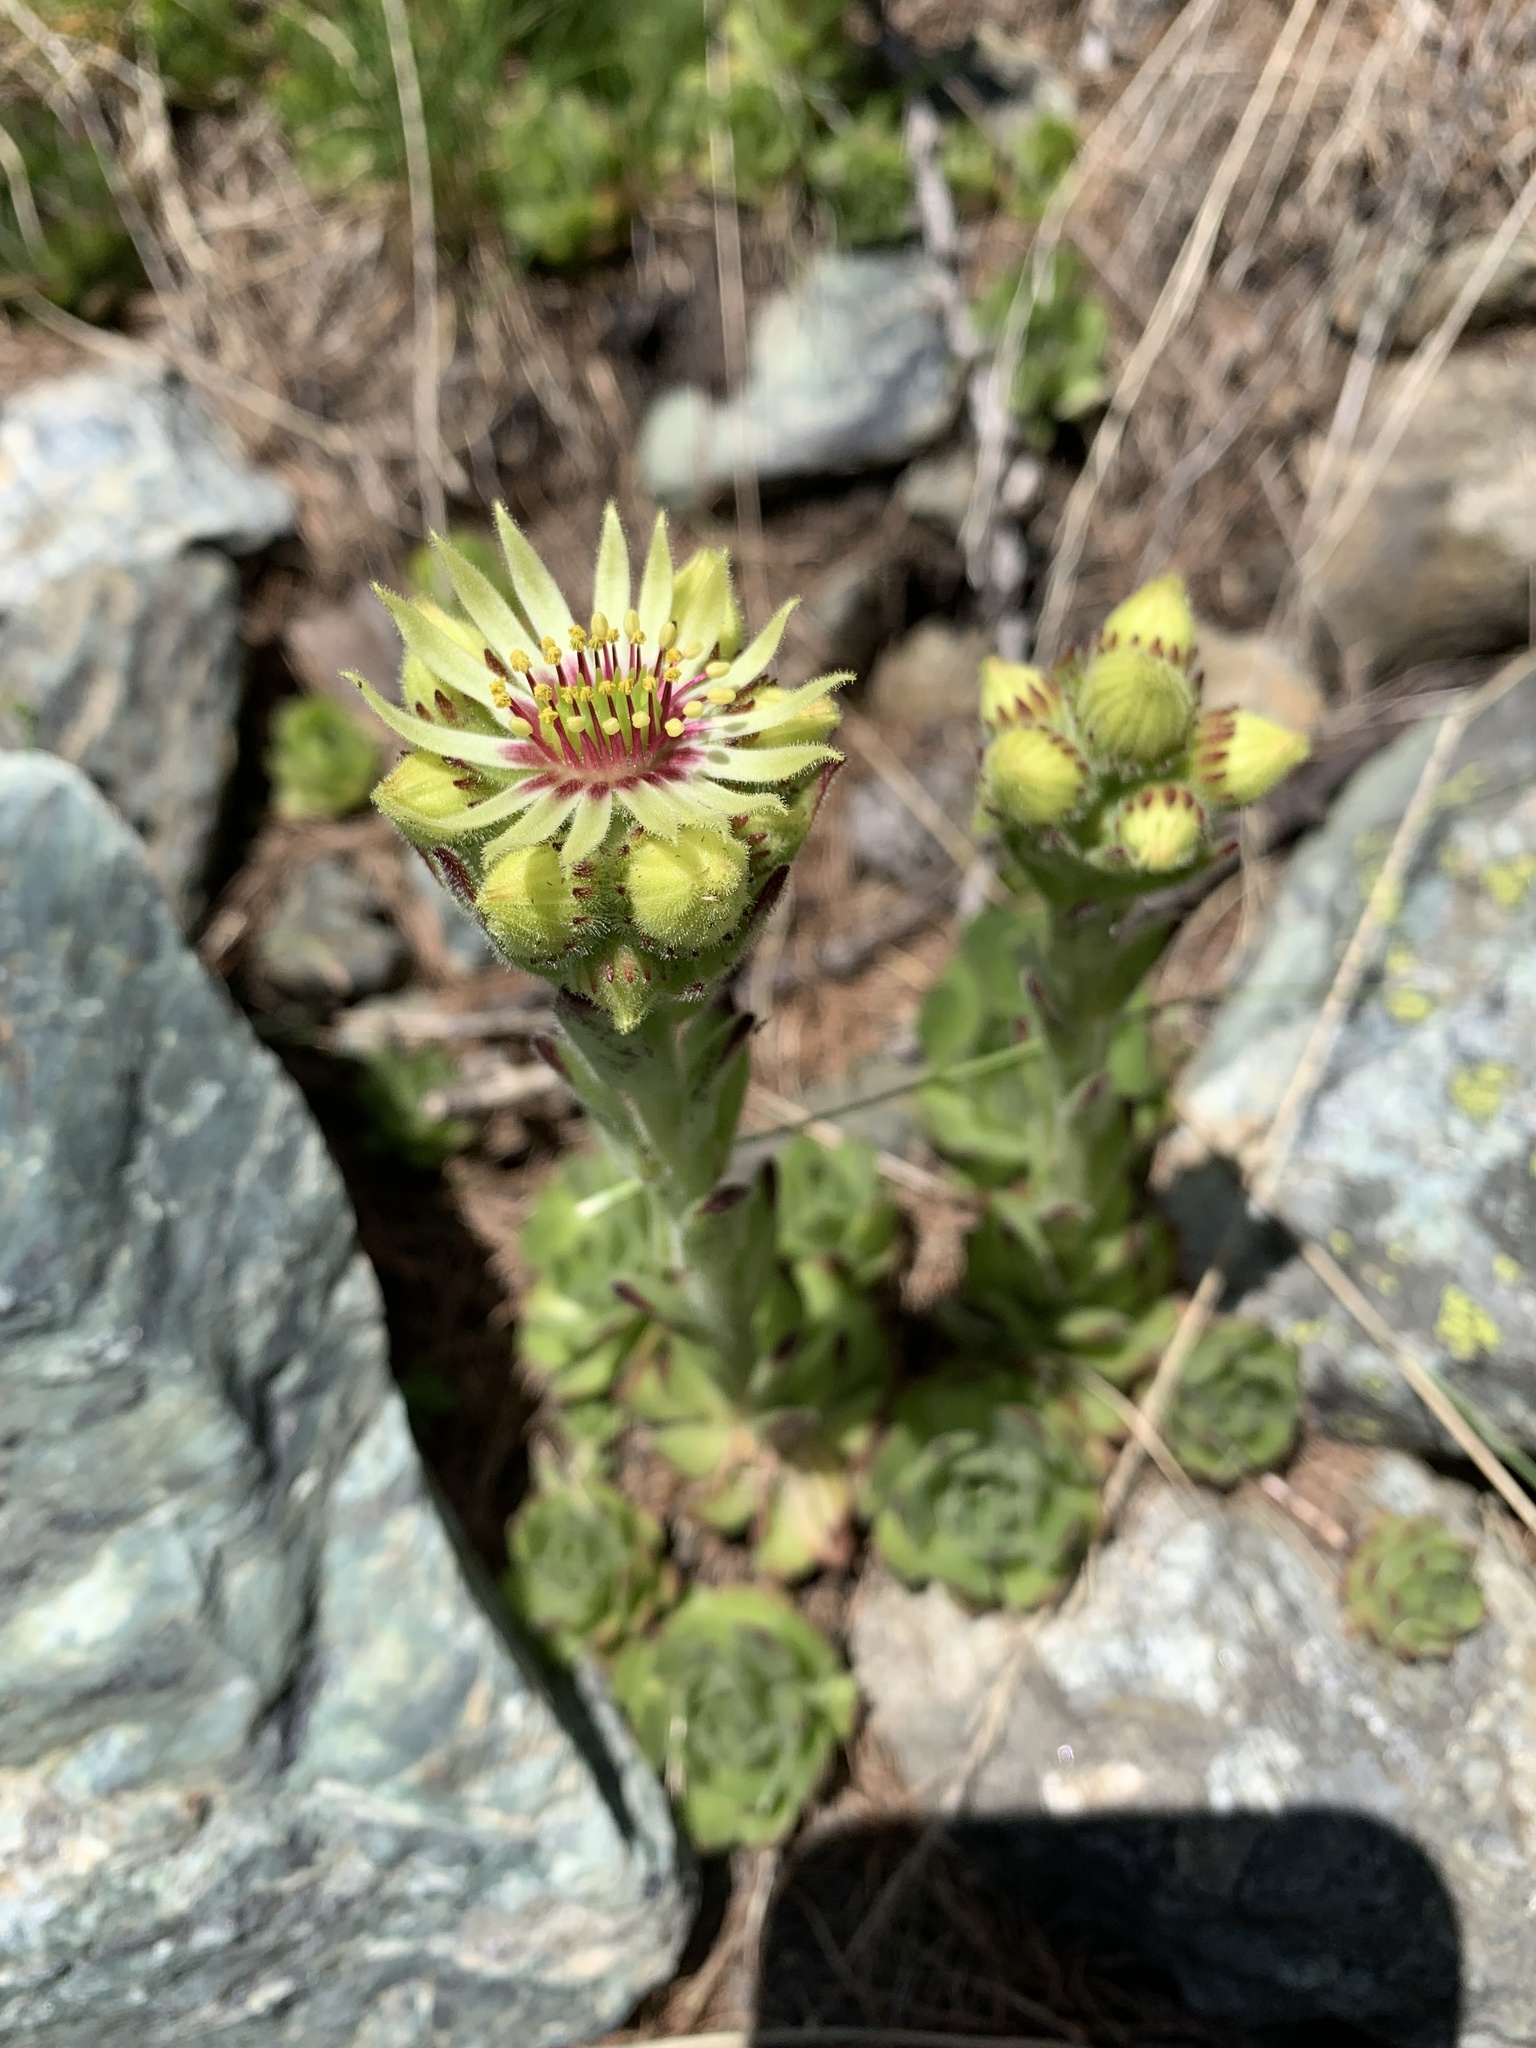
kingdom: Plantae
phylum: Tracheophyta
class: Magnoliopsida
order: Saxifragales
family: Crassulaceae
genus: Sempervivum
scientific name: Sempervivum grandiflorum
